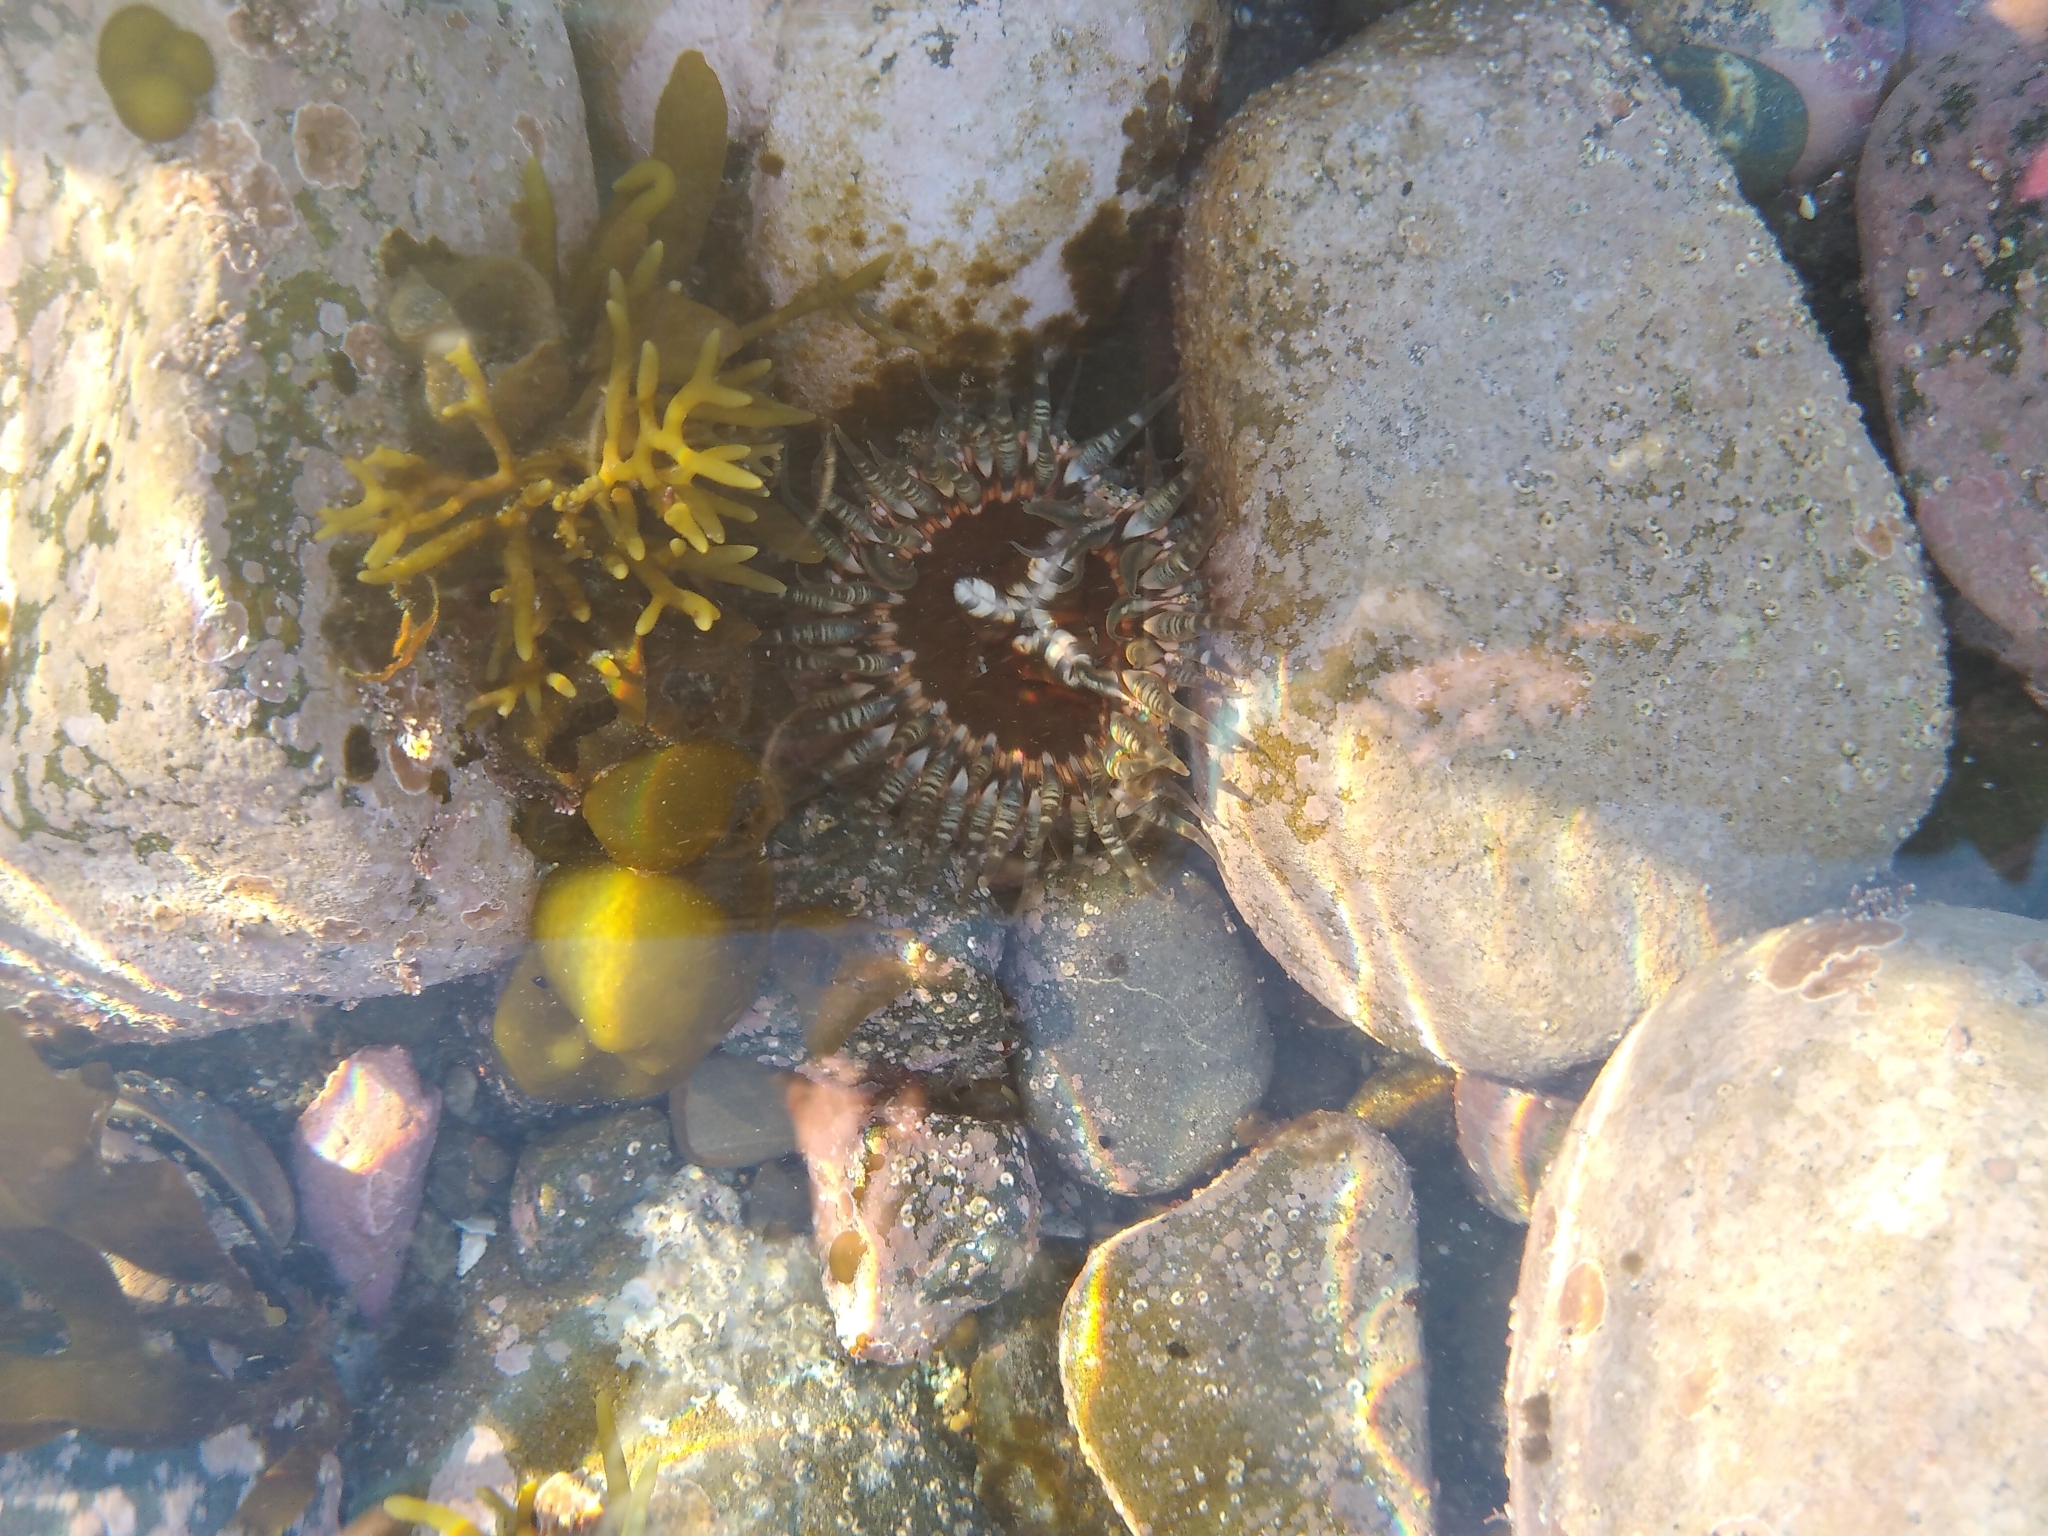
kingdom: Animalia
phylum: Cnidaria
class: Anthozoa
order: Actiniaria
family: Actiniidae
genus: Oulactis
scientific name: Oulactis muscosa
